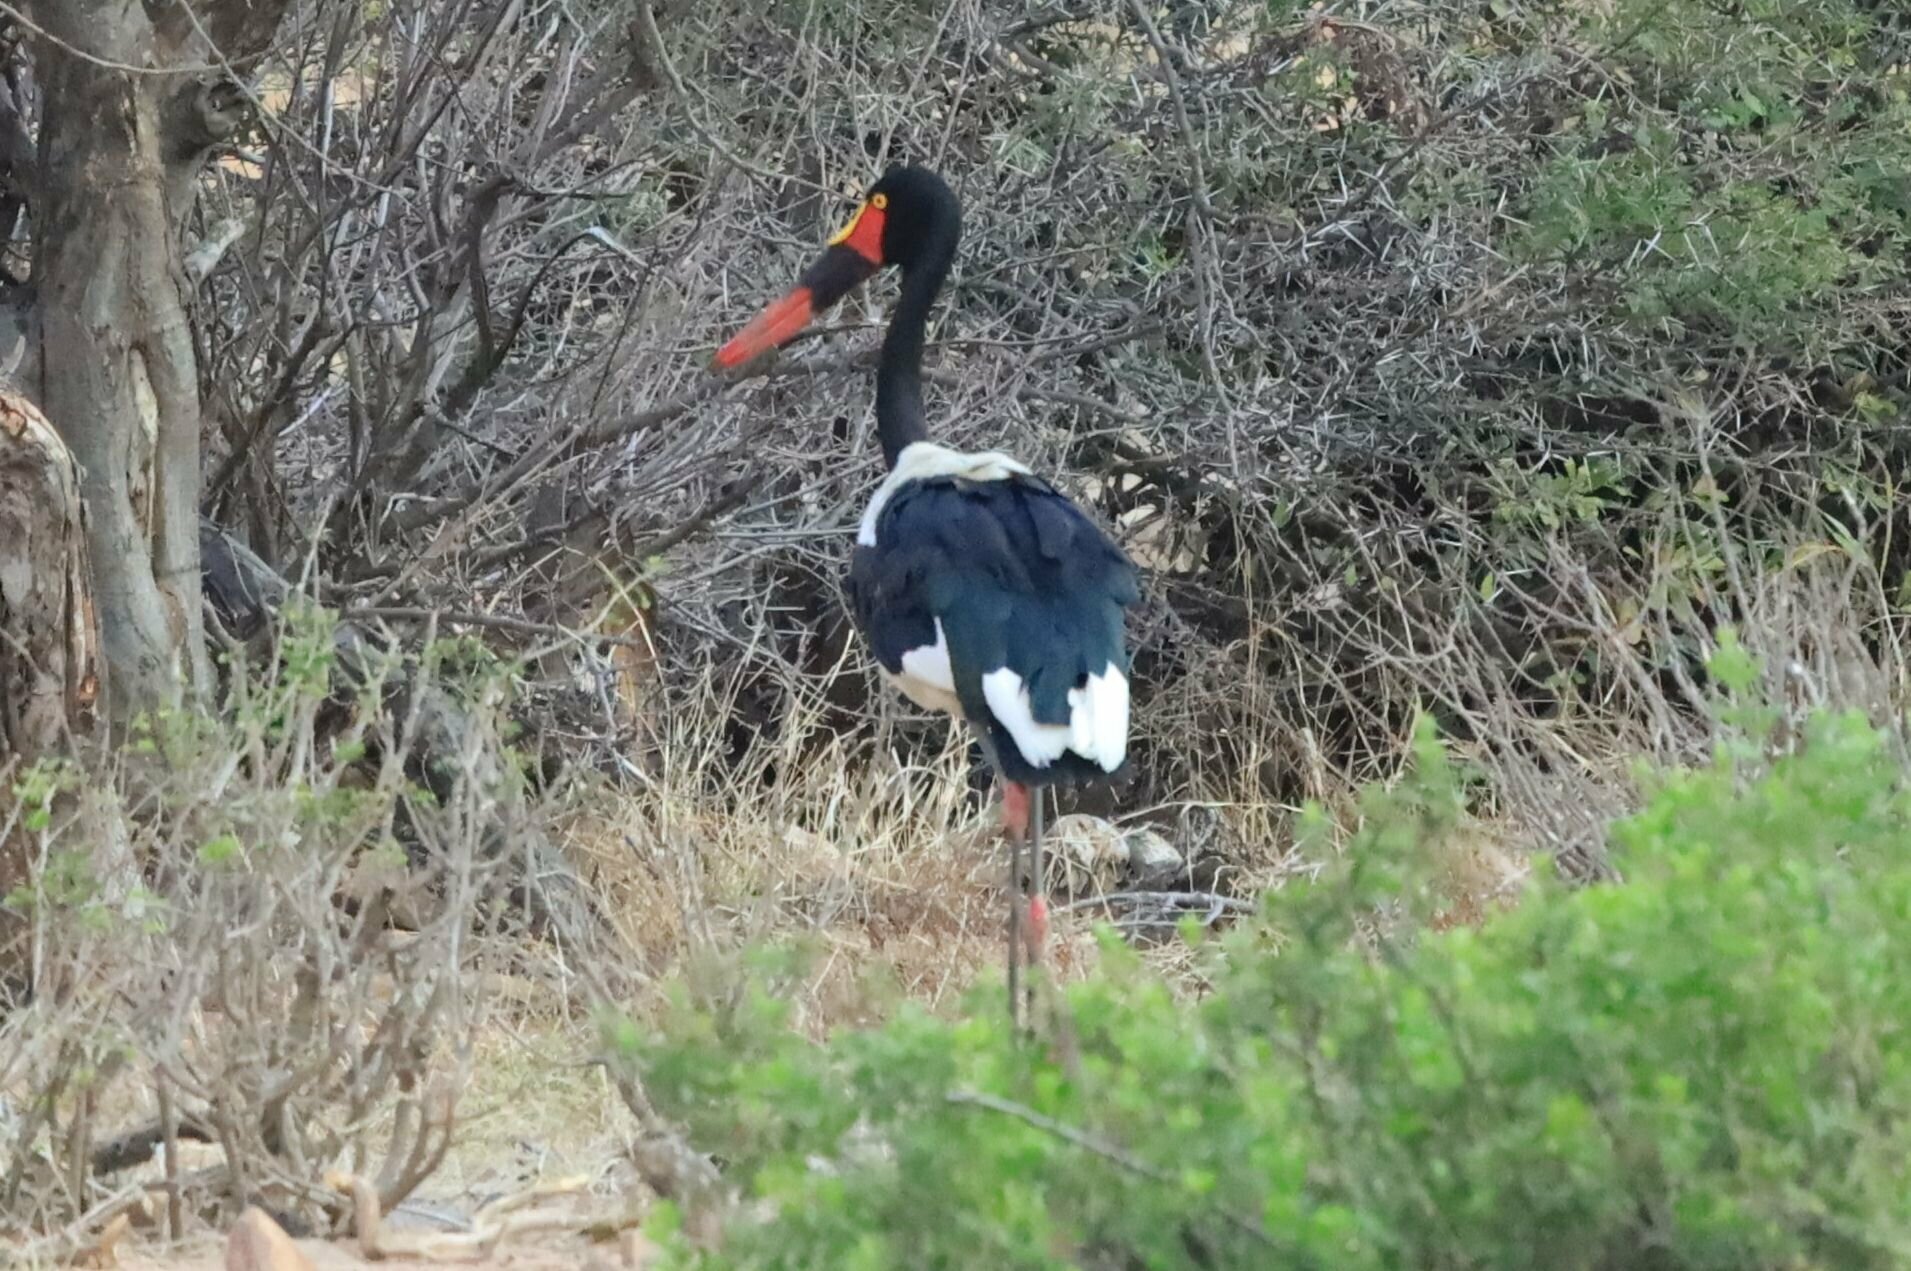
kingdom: Animalia
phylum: Chordata
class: Aves
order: Ciconiiformes
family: Ciconiidae
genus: Ephippiorhynchus
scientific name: Ephippiorhynchus senegalensis
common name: Saddle-billed stork
